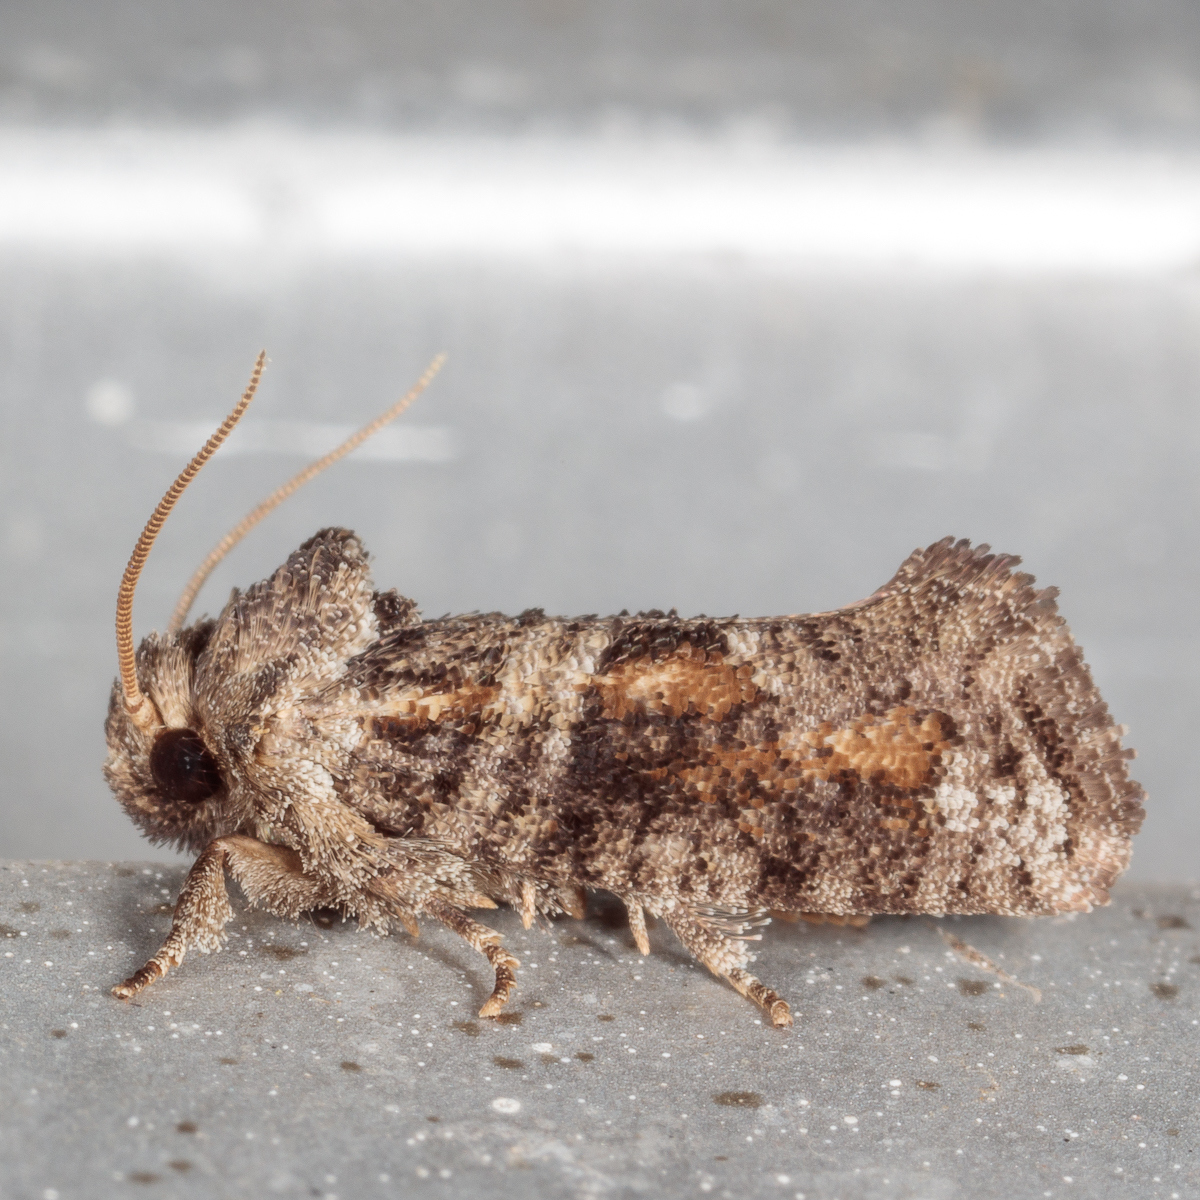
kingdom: Animalia
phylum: Arthropoda
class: Insecta
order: Lepidoptera
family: Tineidae
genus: Acrolophus
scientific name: Acrolophus piger
